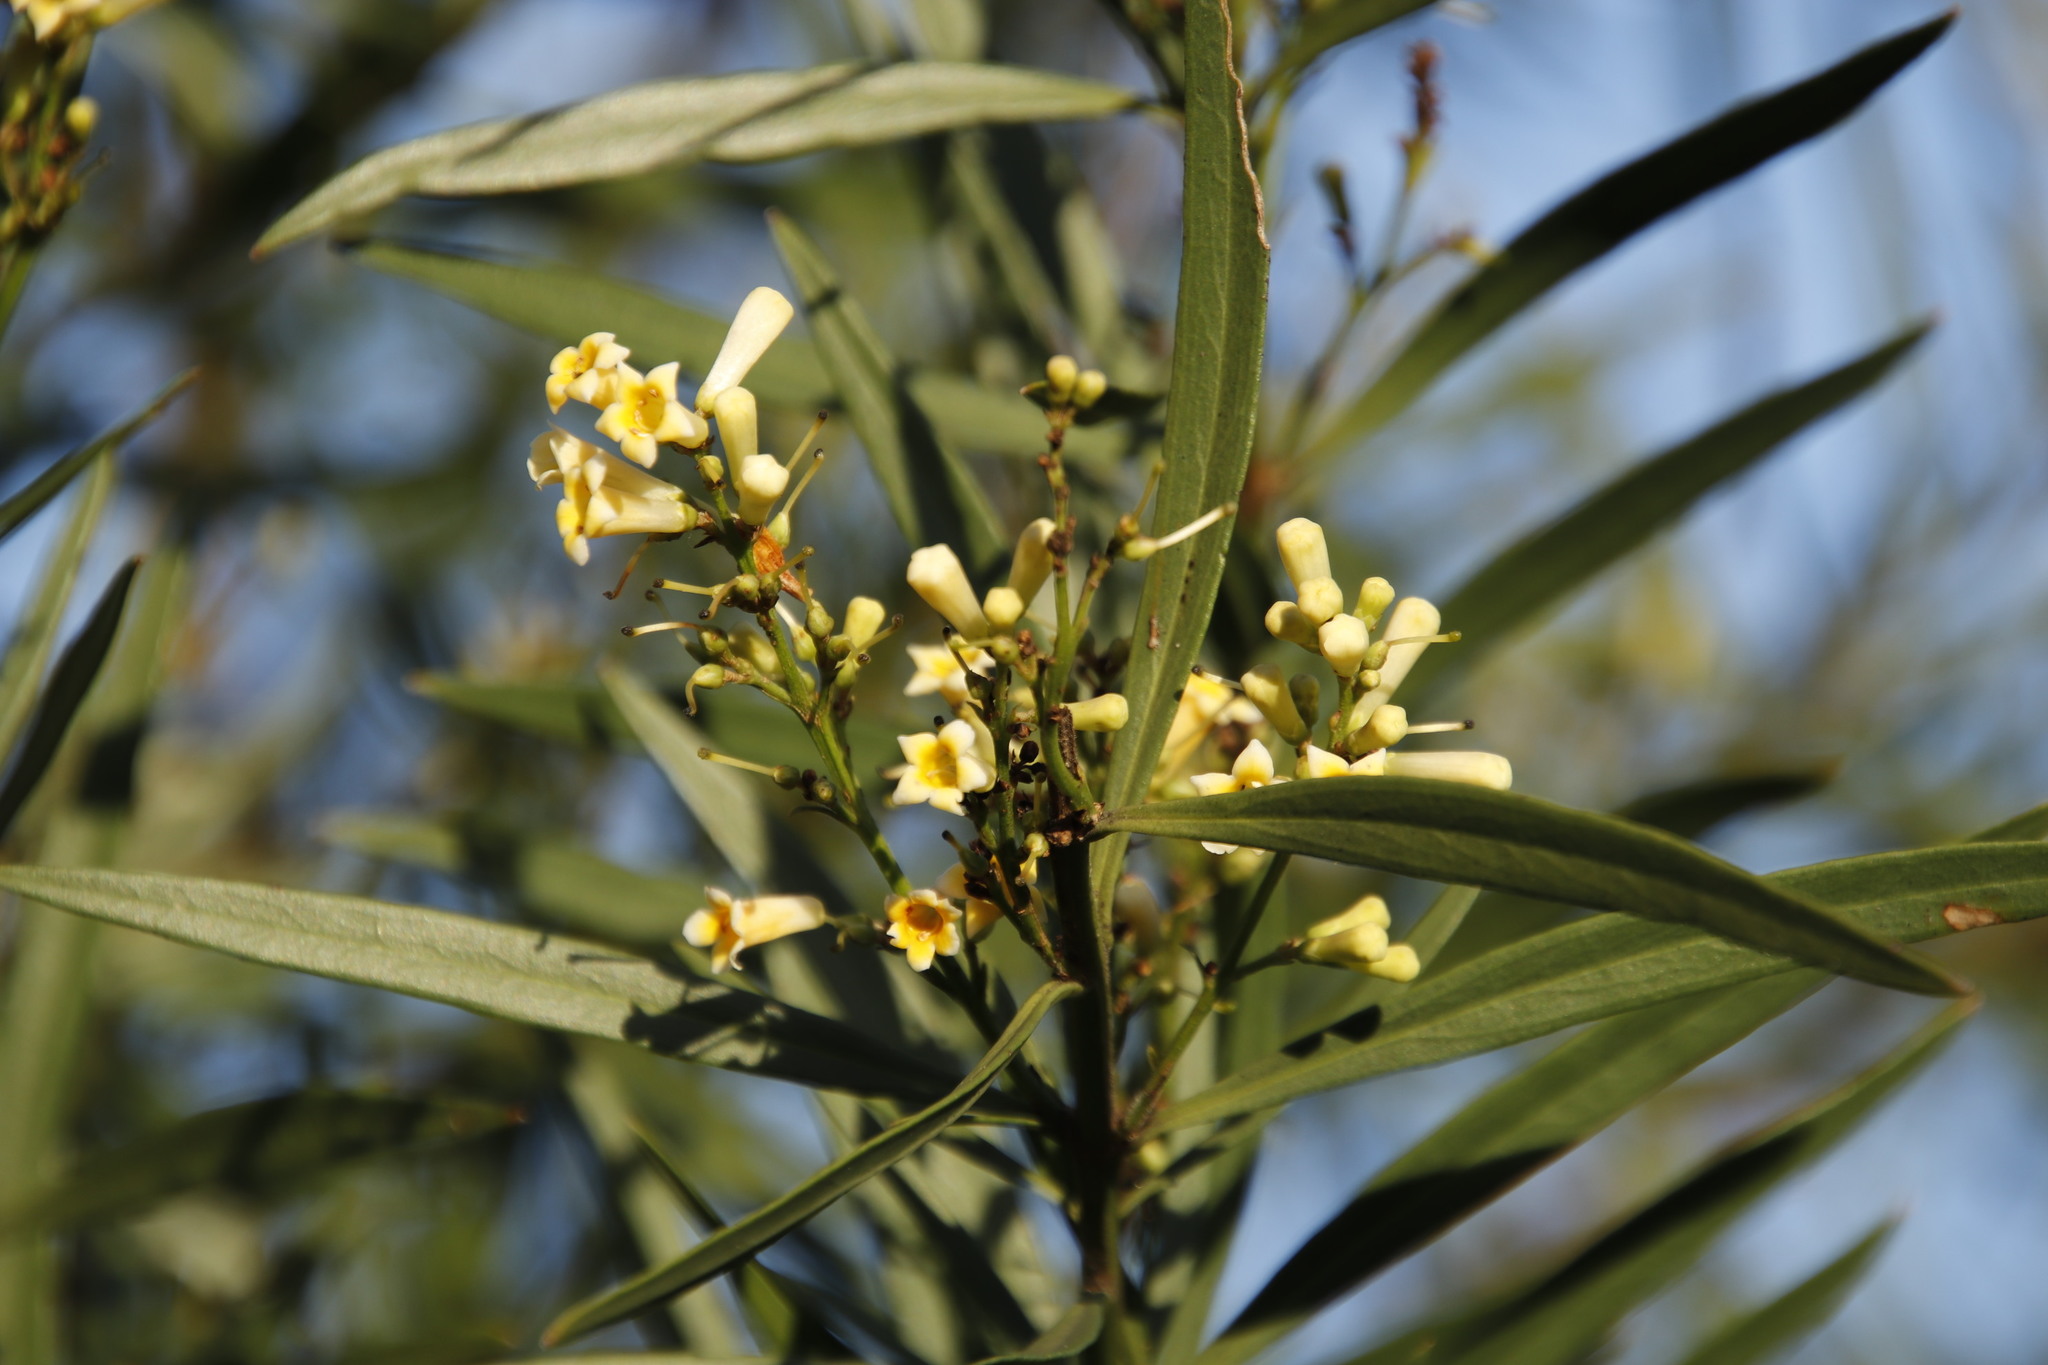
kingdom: Plantae
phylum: Tracheophyta
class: Magnoliopsida
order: Lamiales
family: Scrophulariaceae
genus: Freylinia
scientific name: Freylinia lanceolata
